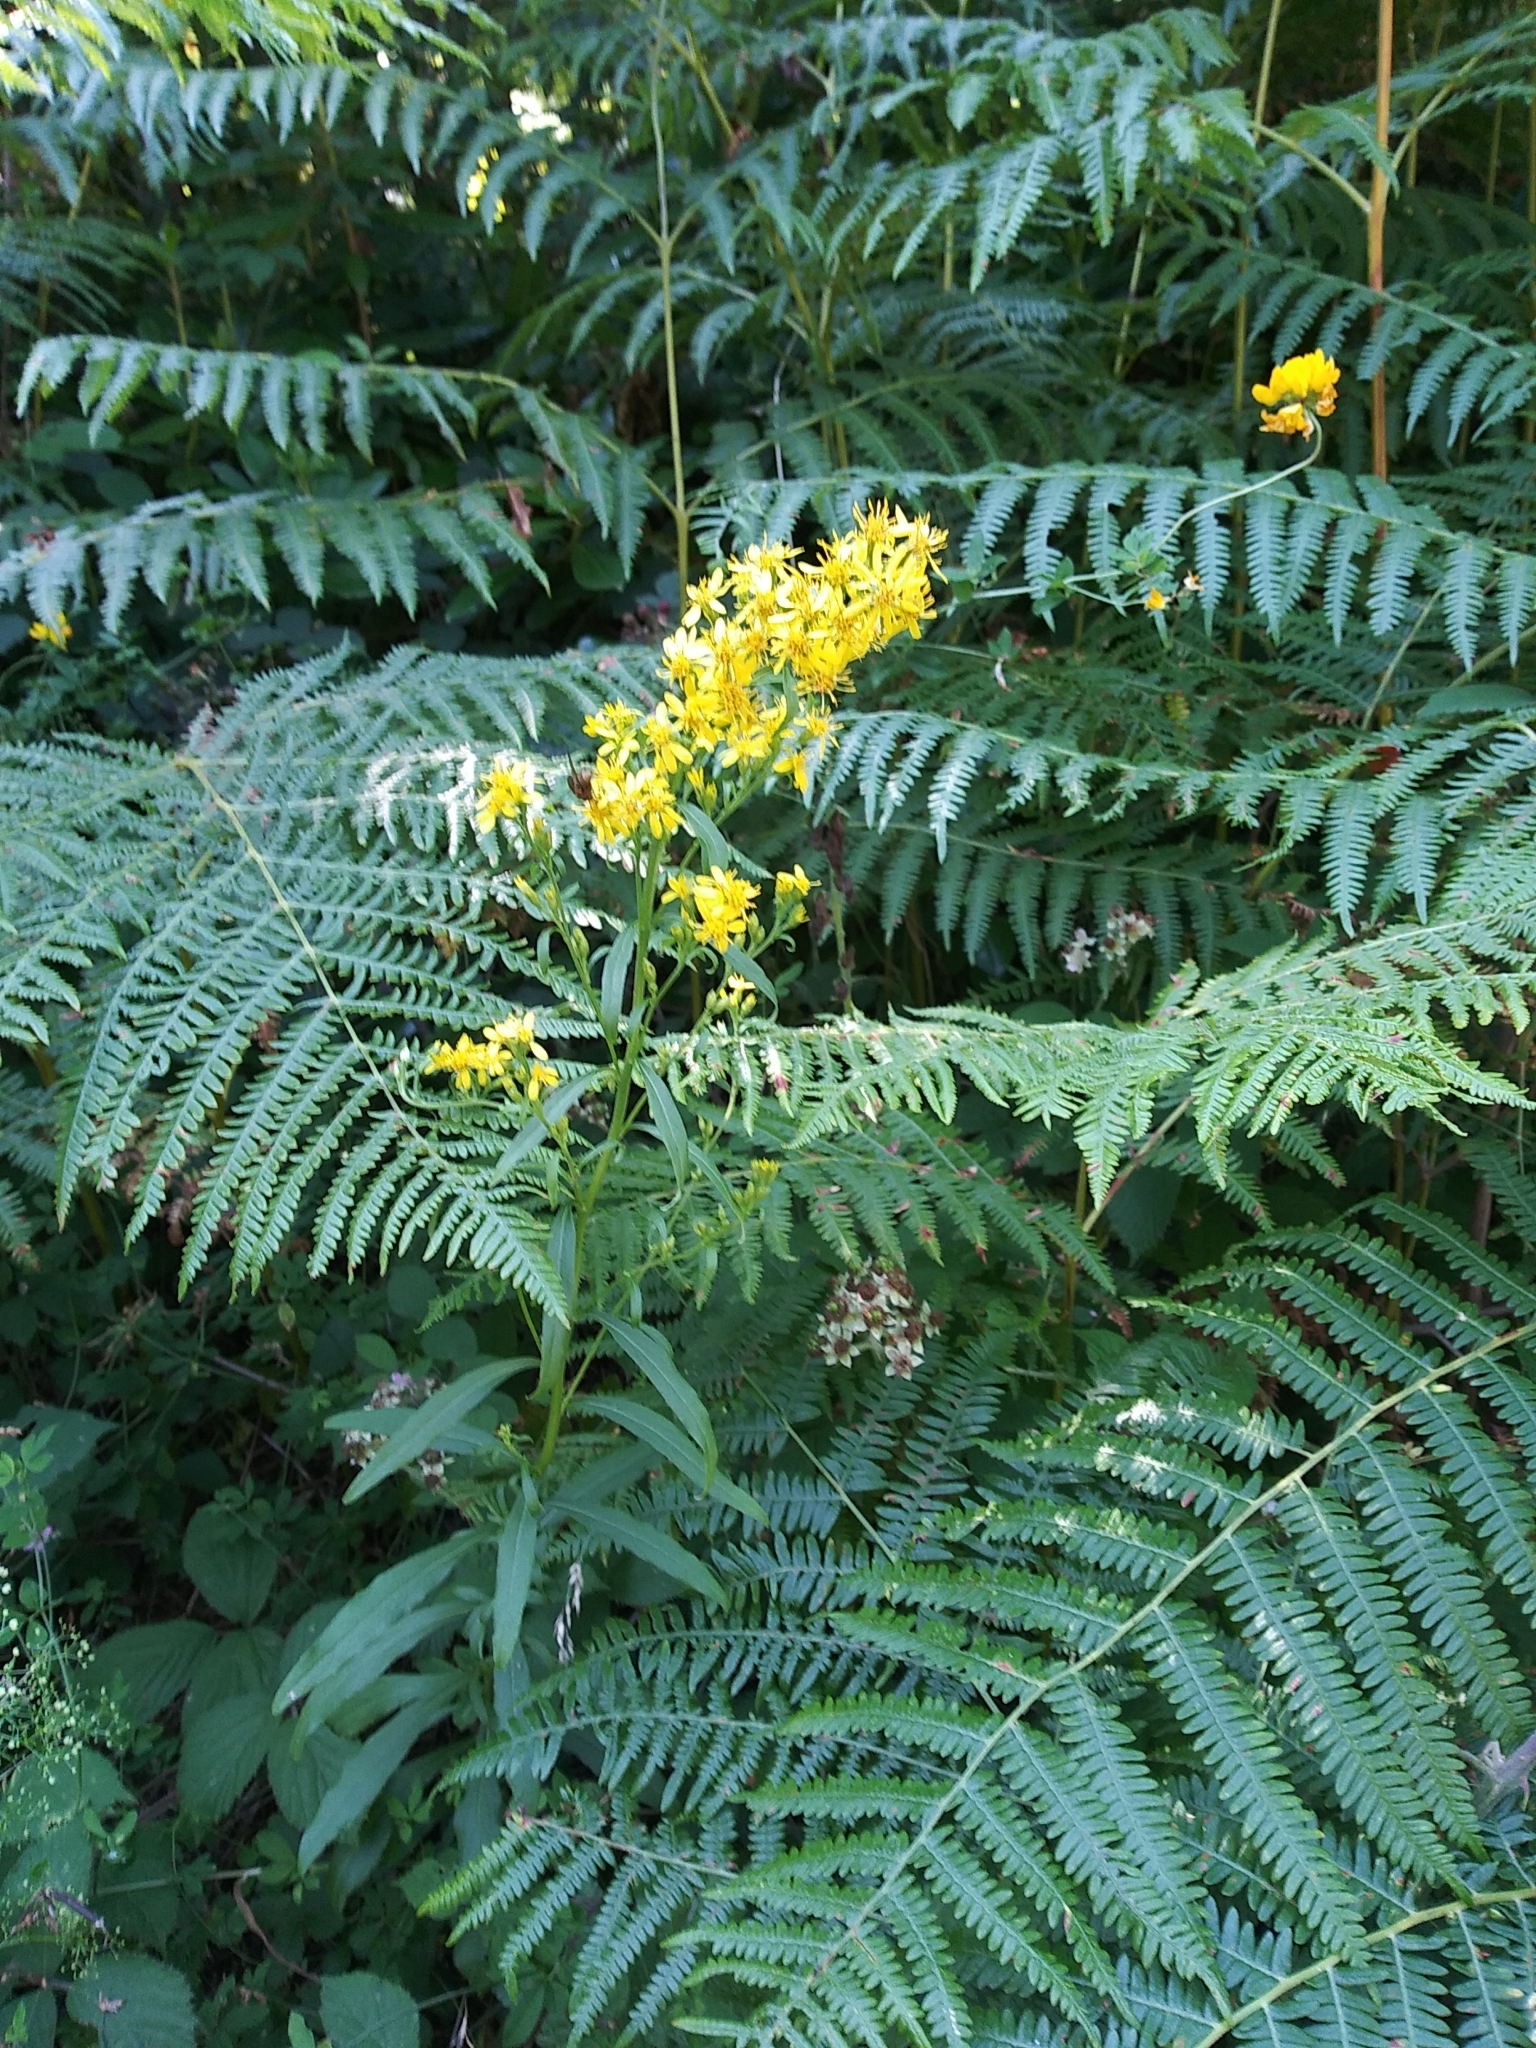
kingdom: Plantae
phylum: Tracheophyta
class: Magnoliopsida
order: Asterales
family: Asteraceae
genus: Solidago
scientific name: Solidago virgaurea
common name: Goldenrod
